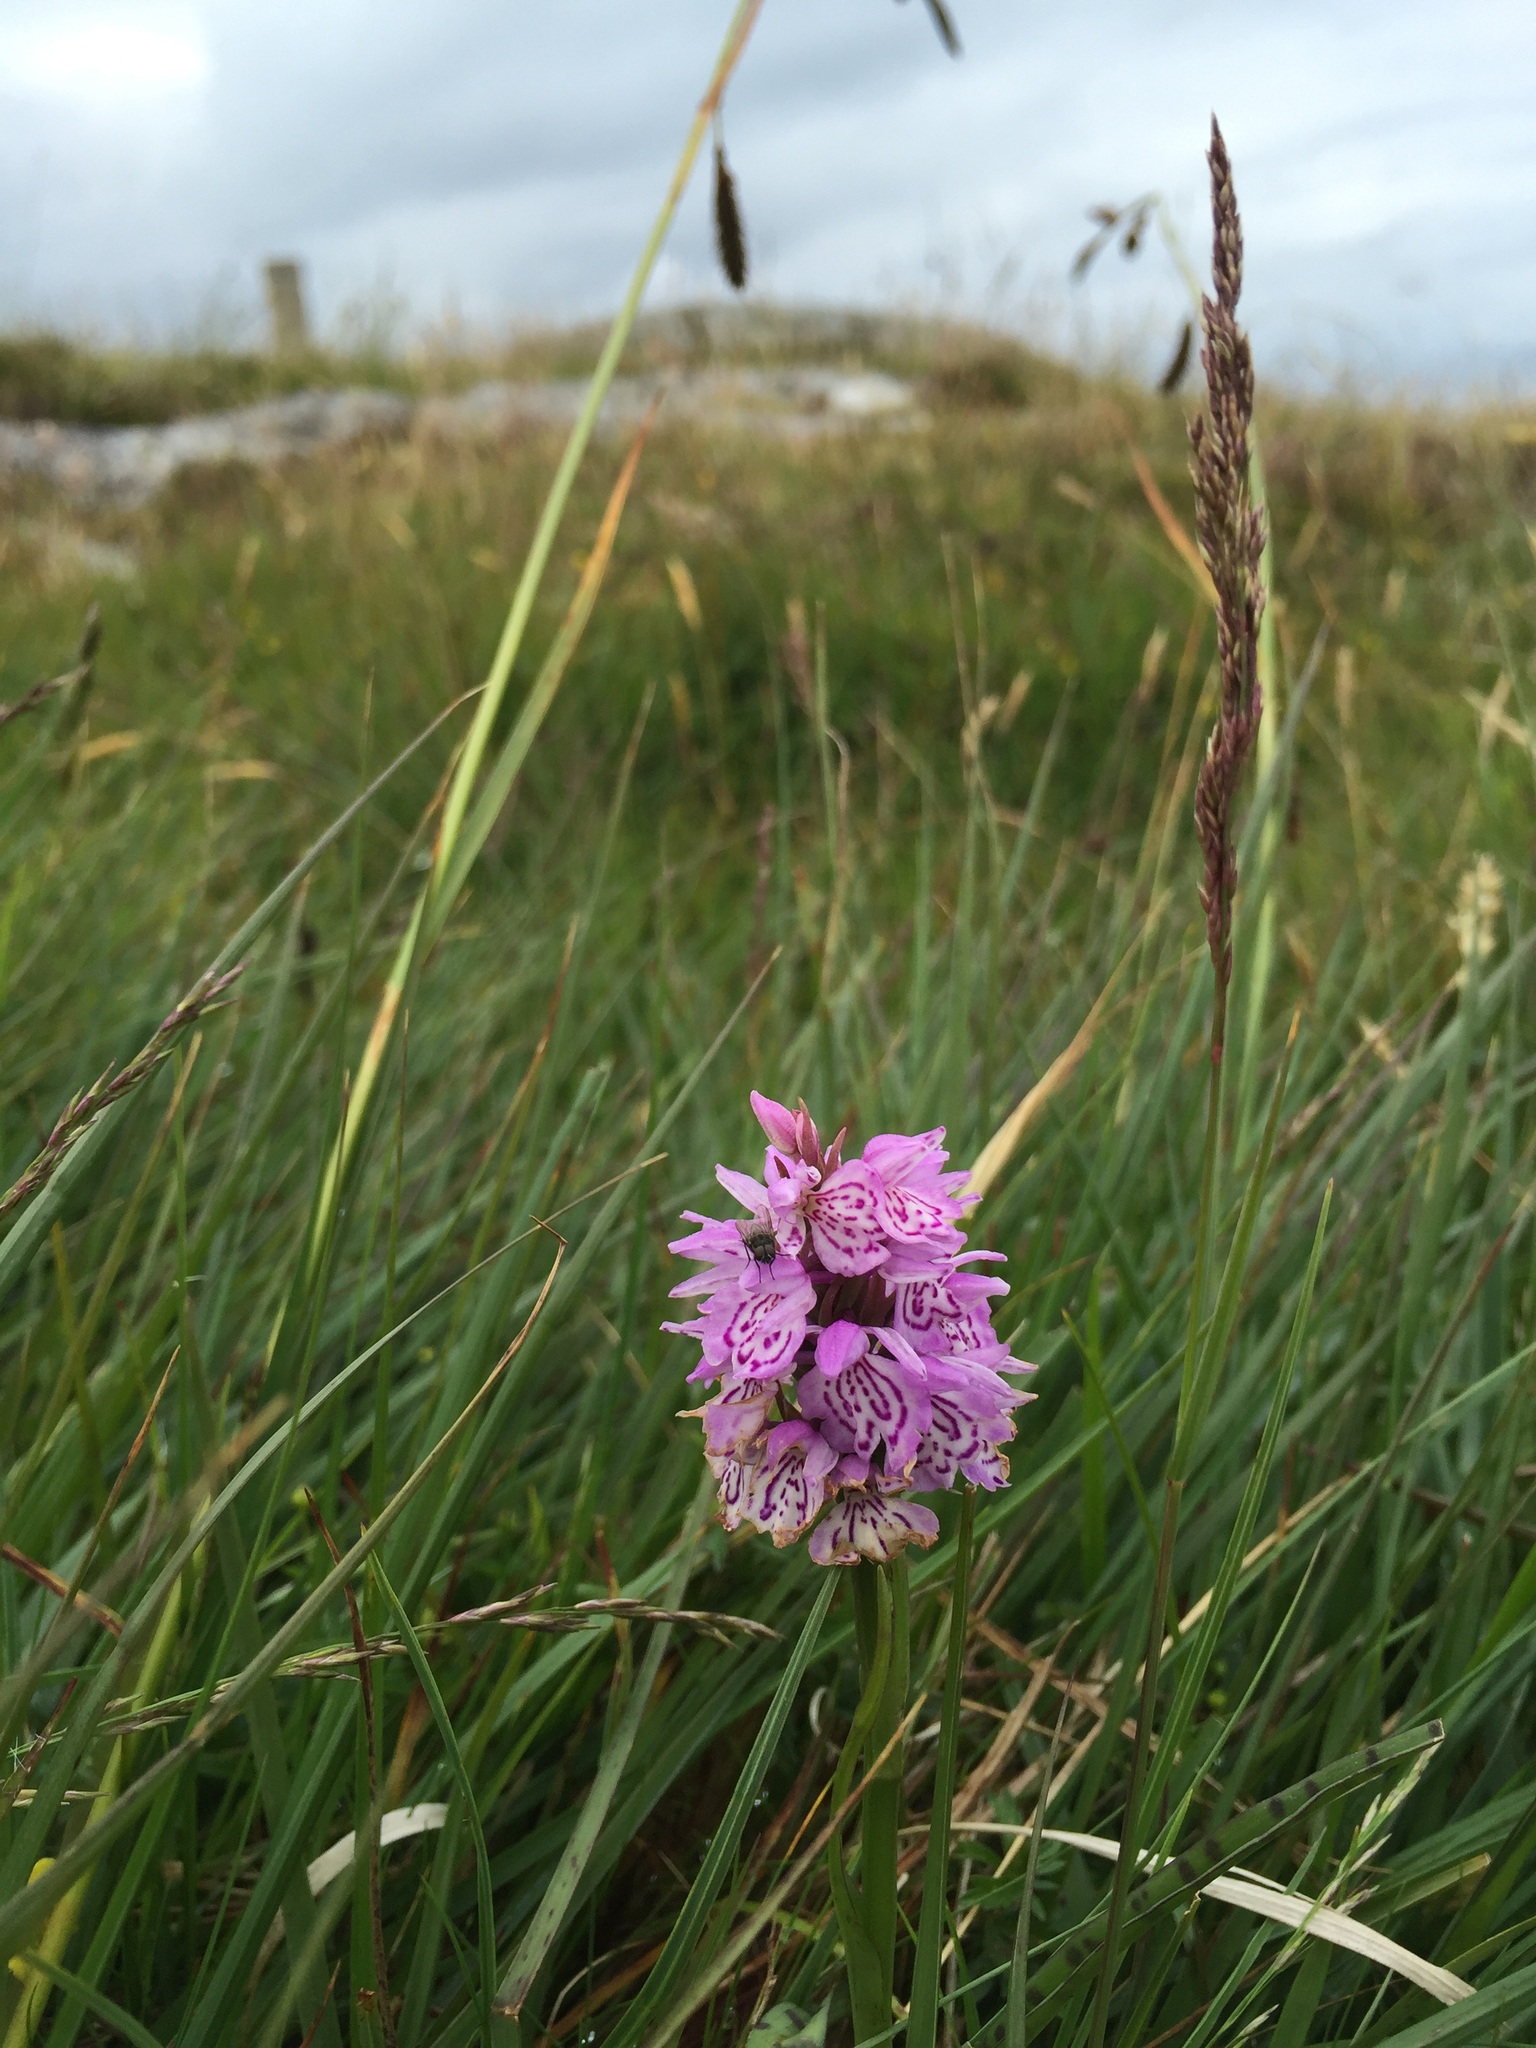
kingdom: Plantae
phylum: Tracheophyta
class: Liliopsida
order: Asparagales
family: Orchidaceae
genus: Dactylorhiza
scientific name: Dactylorhiza maculata
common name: Heath spotted-orchid
